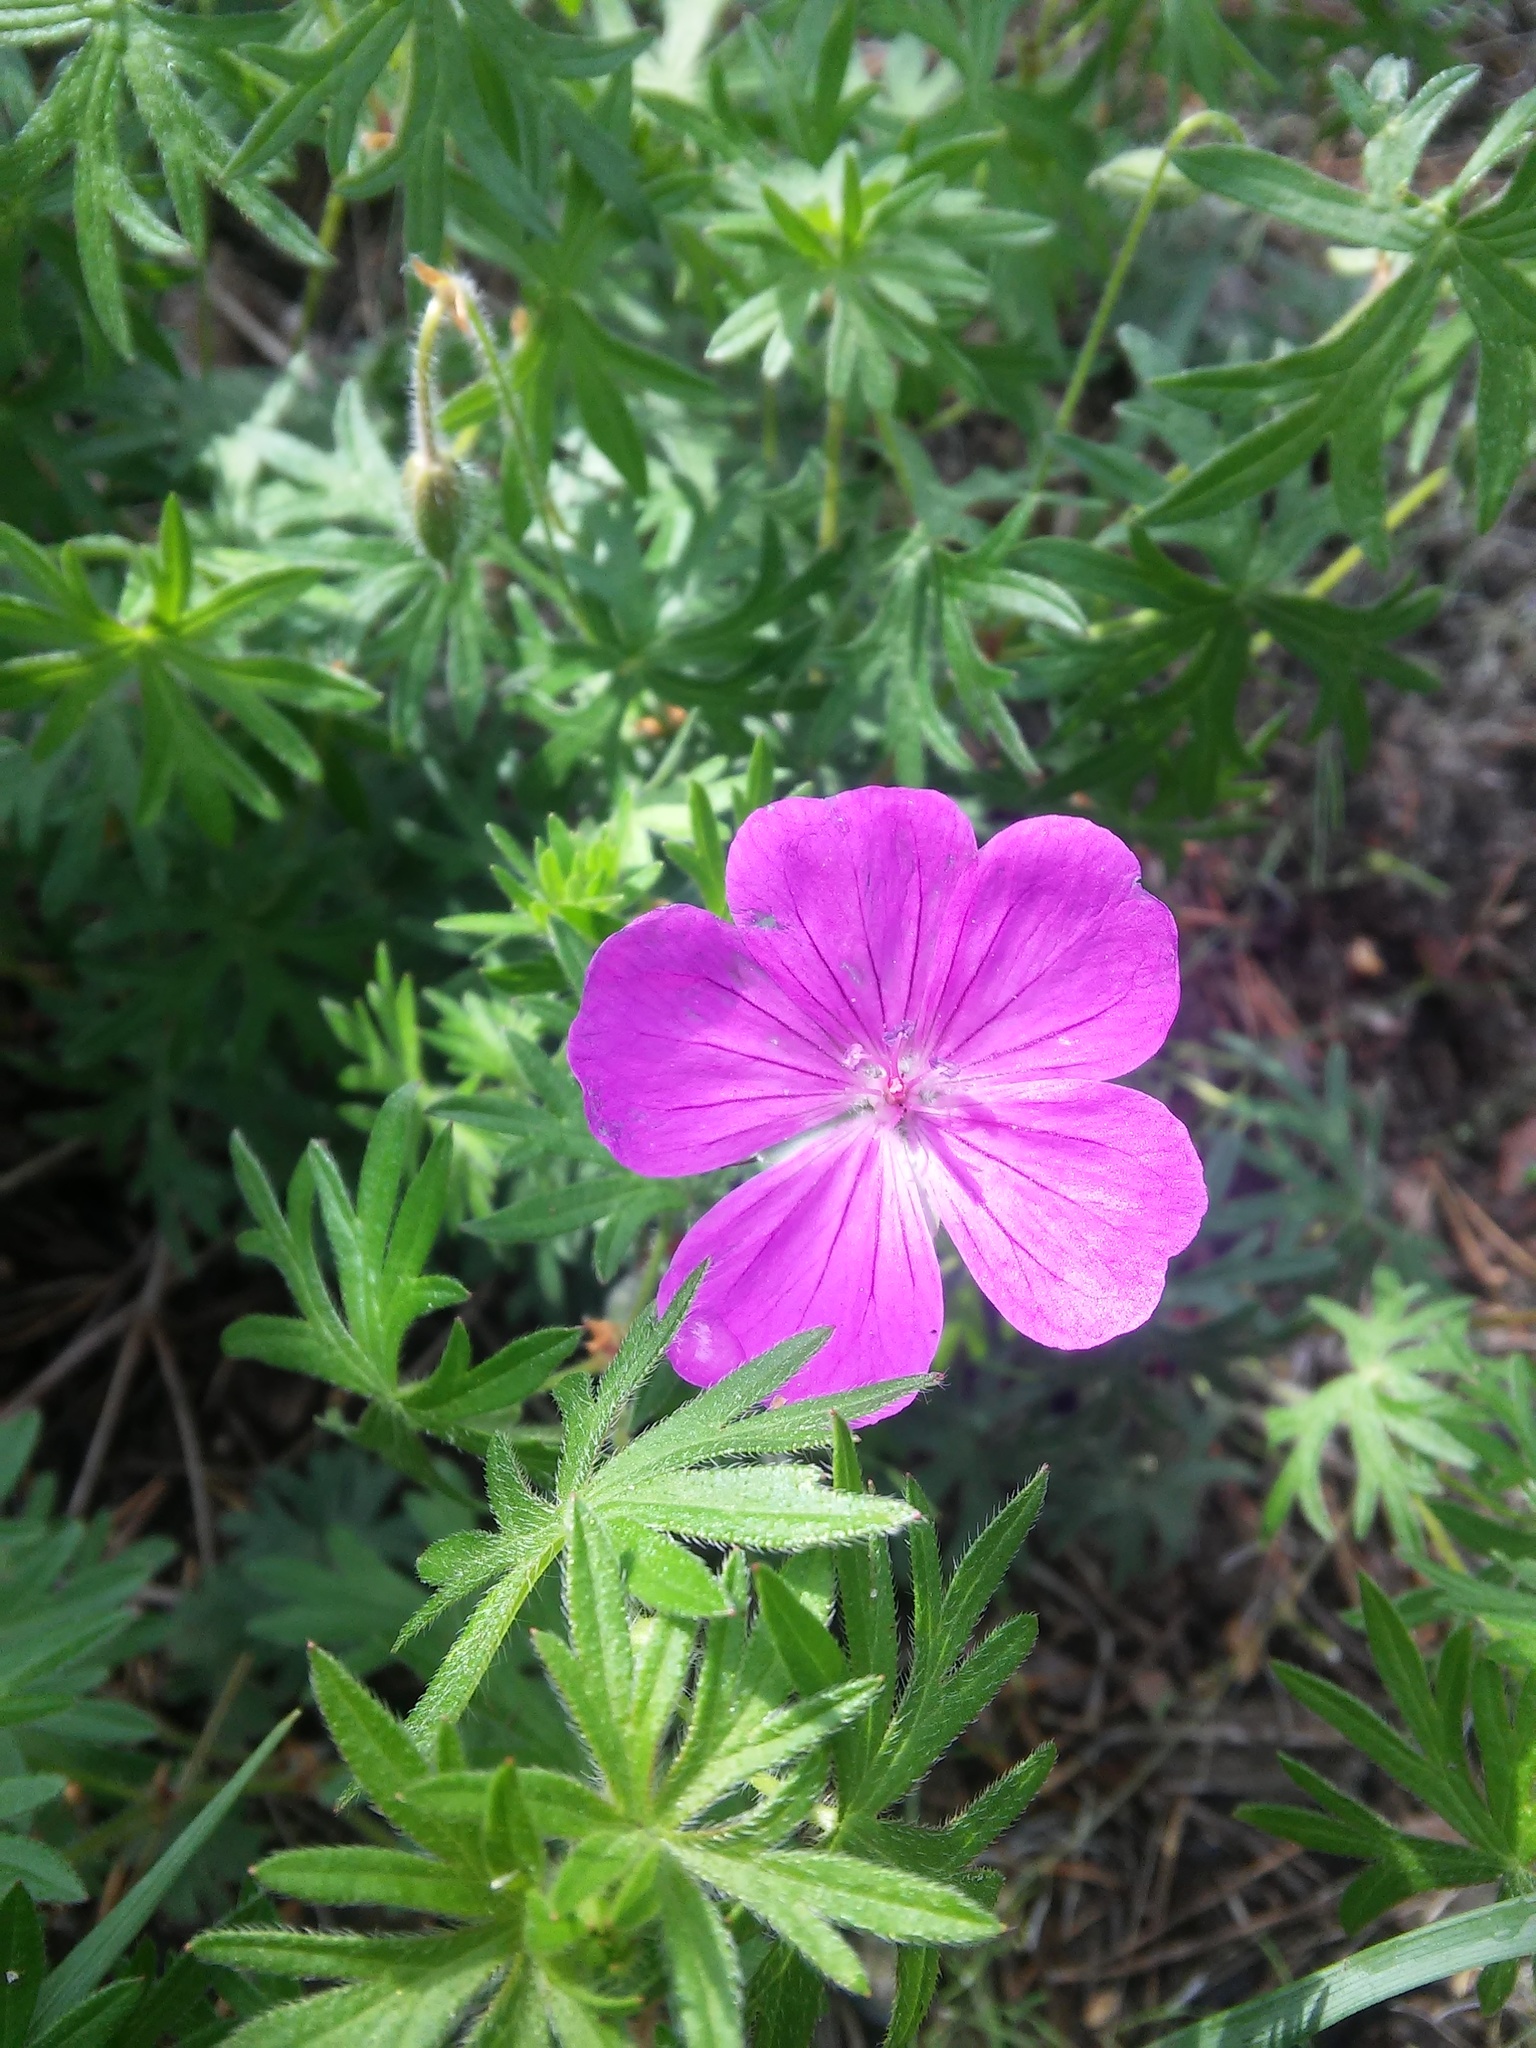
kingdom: Plantae
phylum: Tracheophyta
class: Magnoliopsida
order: Geraniales
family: Geraniaceae
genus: Geranium
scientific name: Geranium sanguineum
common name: Bloody crane's-bill
